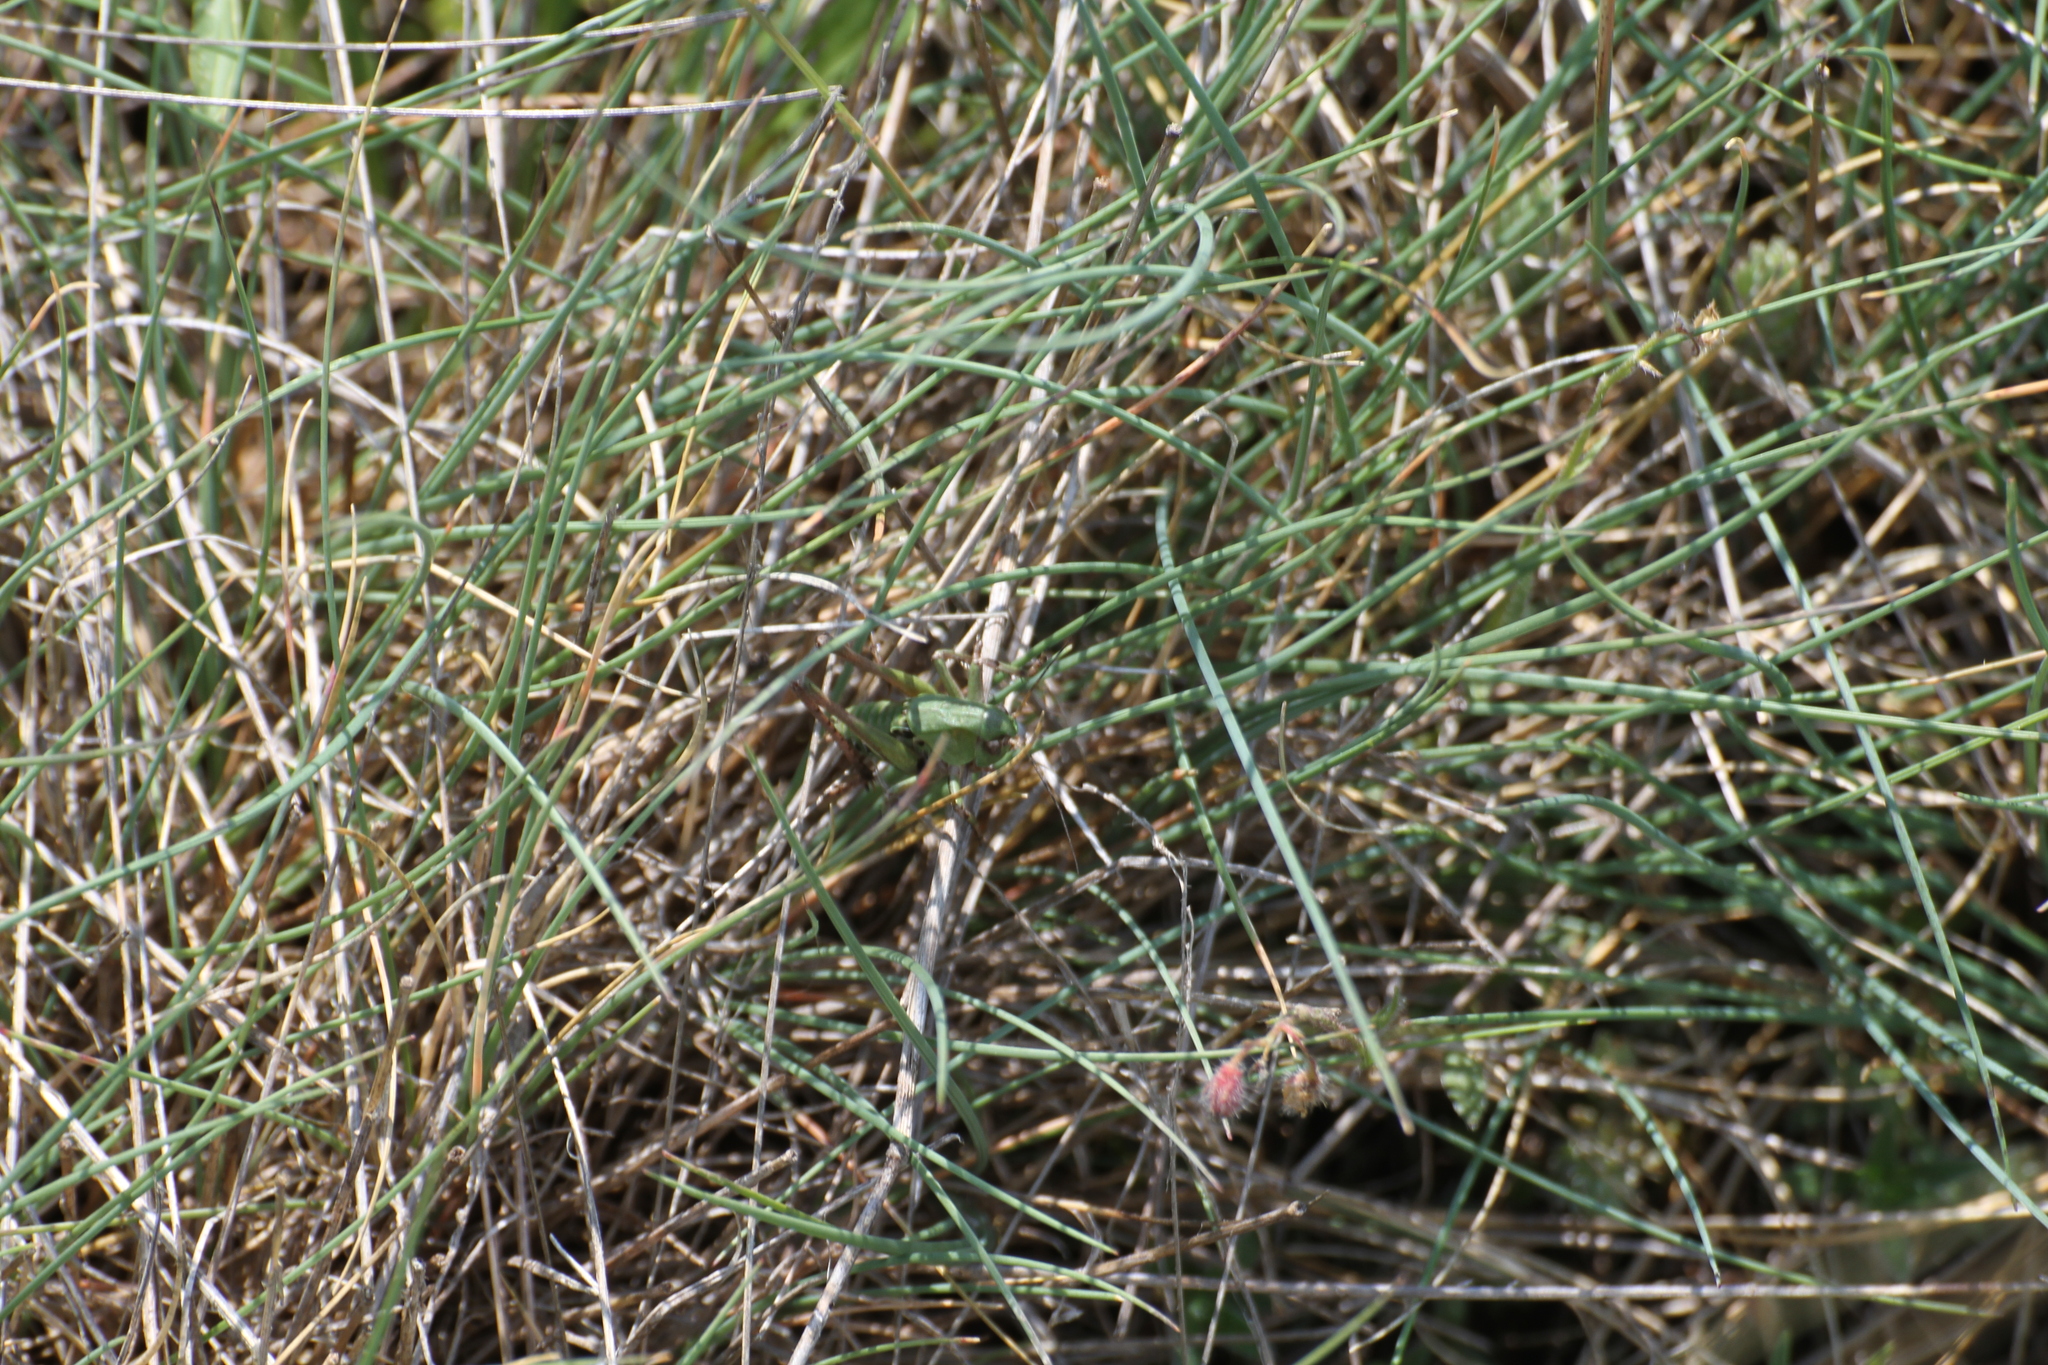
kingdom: Animalia
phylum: Arthropoda
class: Insecta
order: Orthoptera
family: Tettigoniidae
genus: Decticus
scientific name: Decticus verrucivorus
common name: Wart-biter
